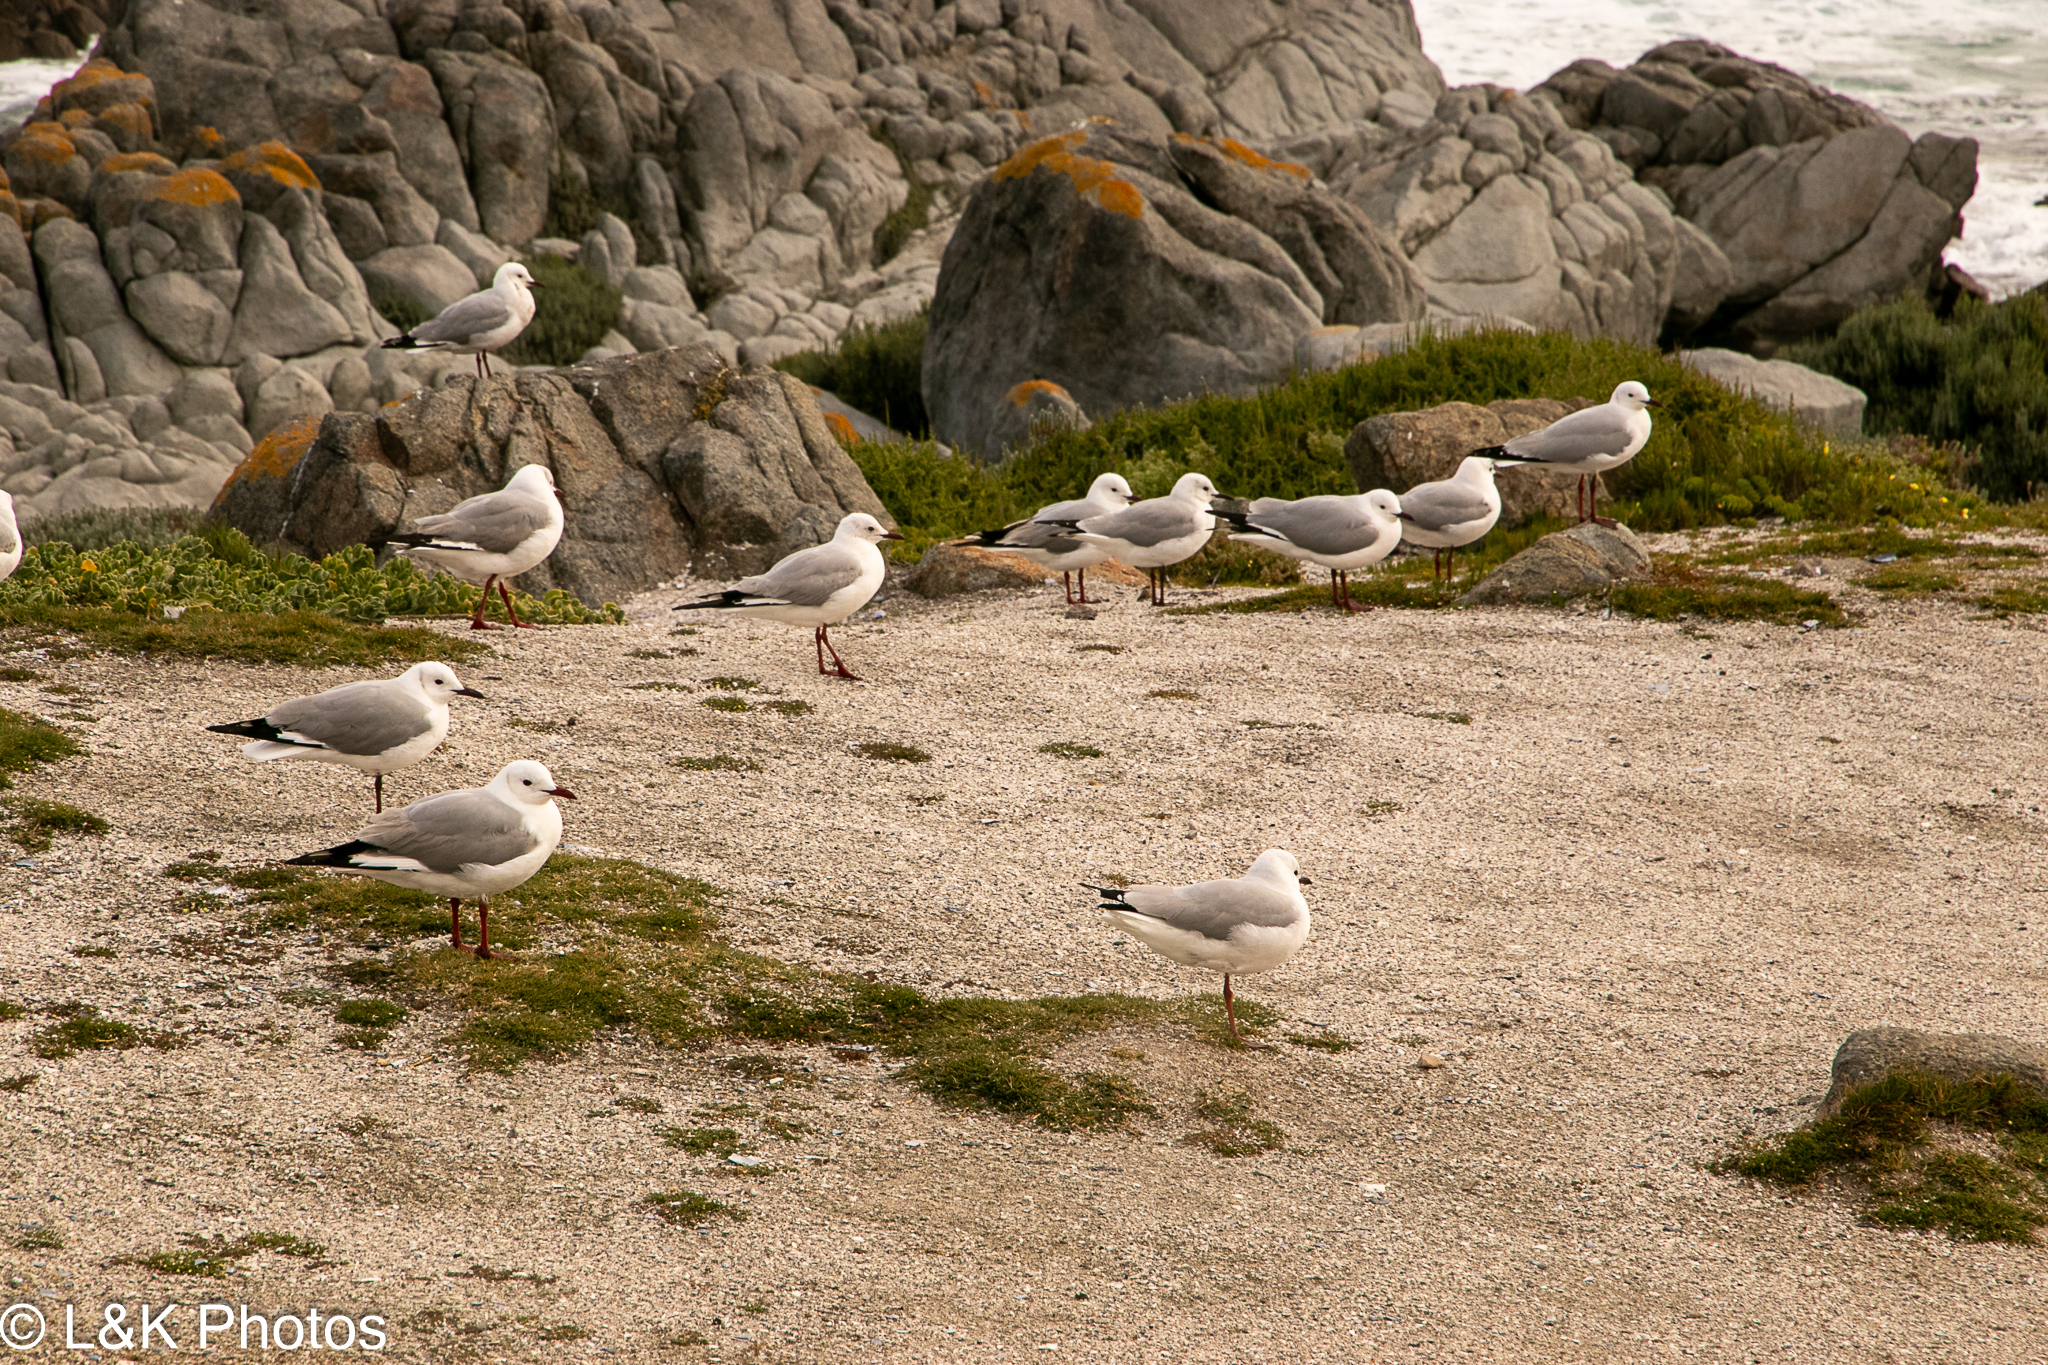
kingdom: Animalia
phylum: Chordata
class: Aves
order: Charadriiformes
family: Laridae
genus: Chroicocephalus
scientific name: Chroicocephalus hartlaubii
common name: Hartlaub's gull
